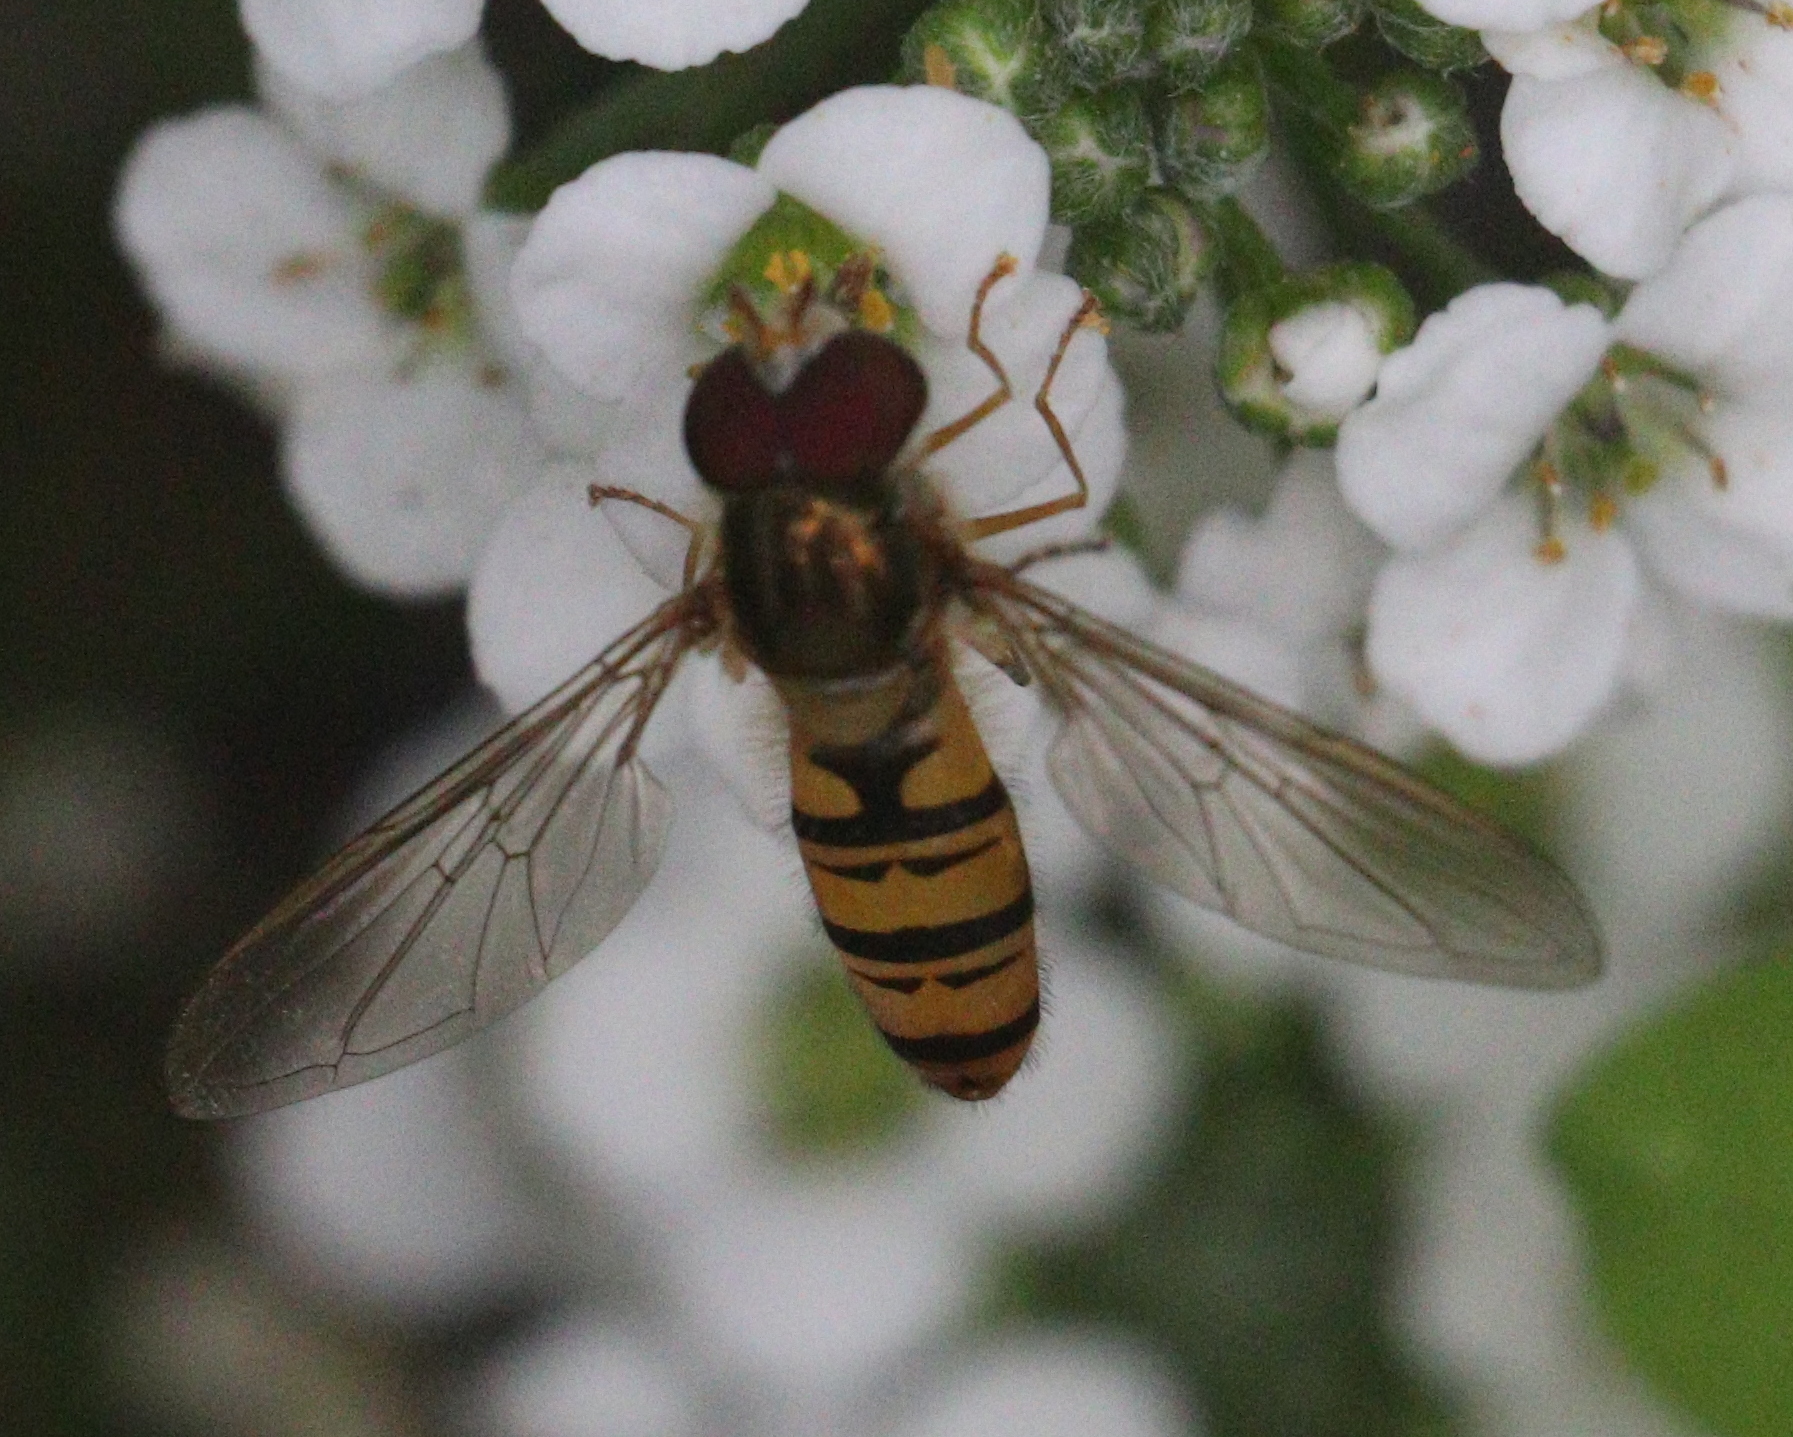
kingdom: Animalia
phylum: Arthropoda
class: Insecta
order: Diptera
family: Syrphidae
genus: Episyrphus
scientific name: Episyrphus balteatus
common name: Marmalade hoverfly
